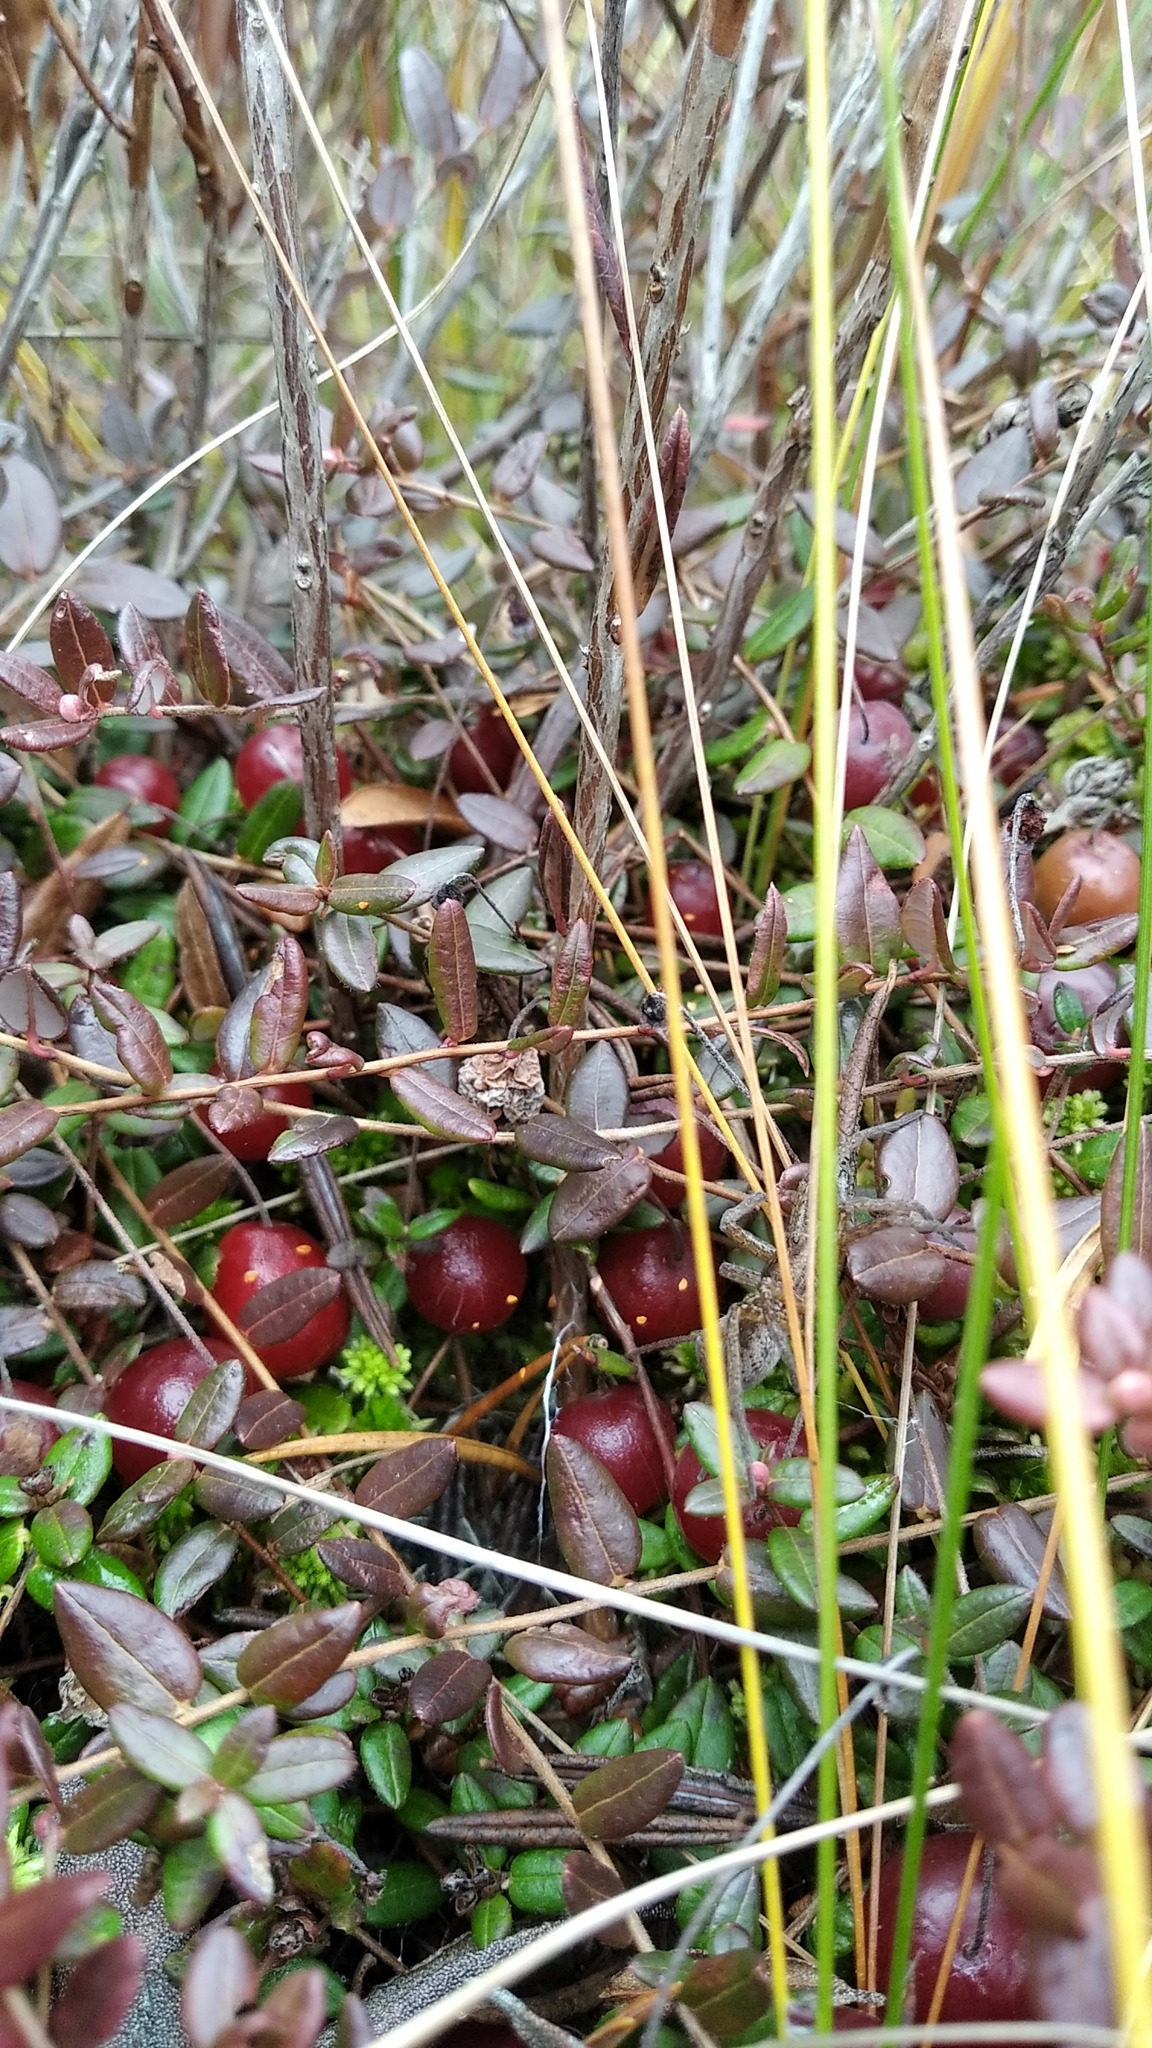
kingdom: Plantae
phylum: Tracheophyta
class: Magnoliopsida
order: Ericales
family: Ericaceae
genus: Vaccinium
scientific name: Vaccinium oxycoccos
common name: Cranberry
